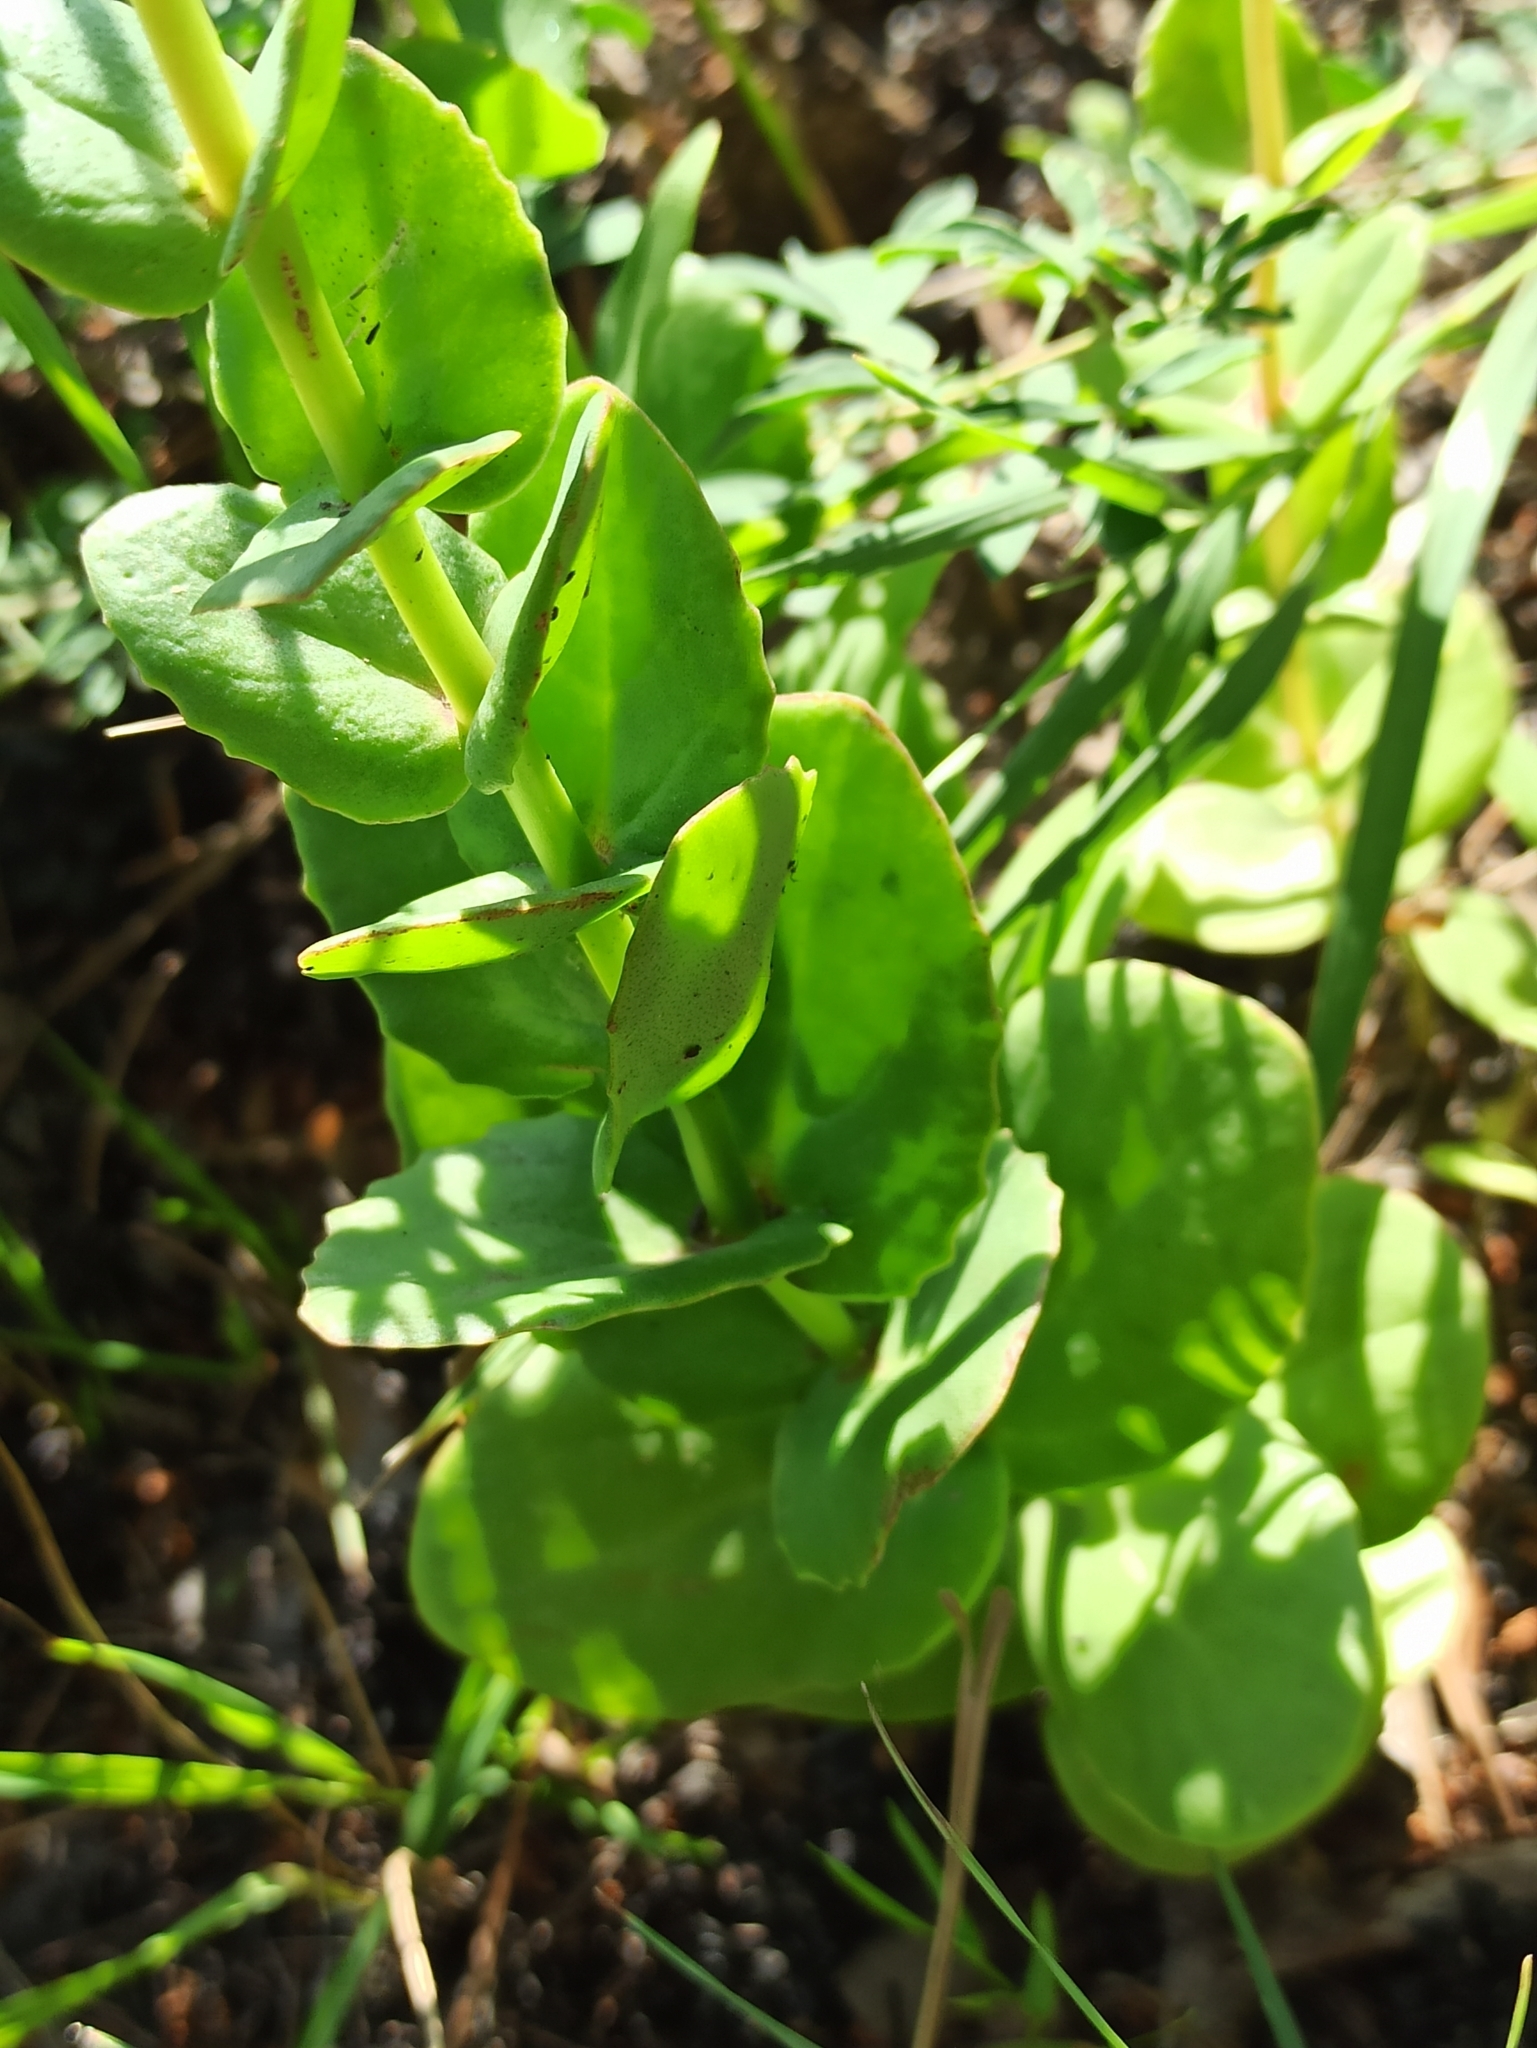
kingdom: Plantae
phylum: Tracheophyta
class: Magnoliopsida
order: Saxifragales
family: Crassulaceae
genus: Hylotelephium
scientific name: Hylotelephium maximum
